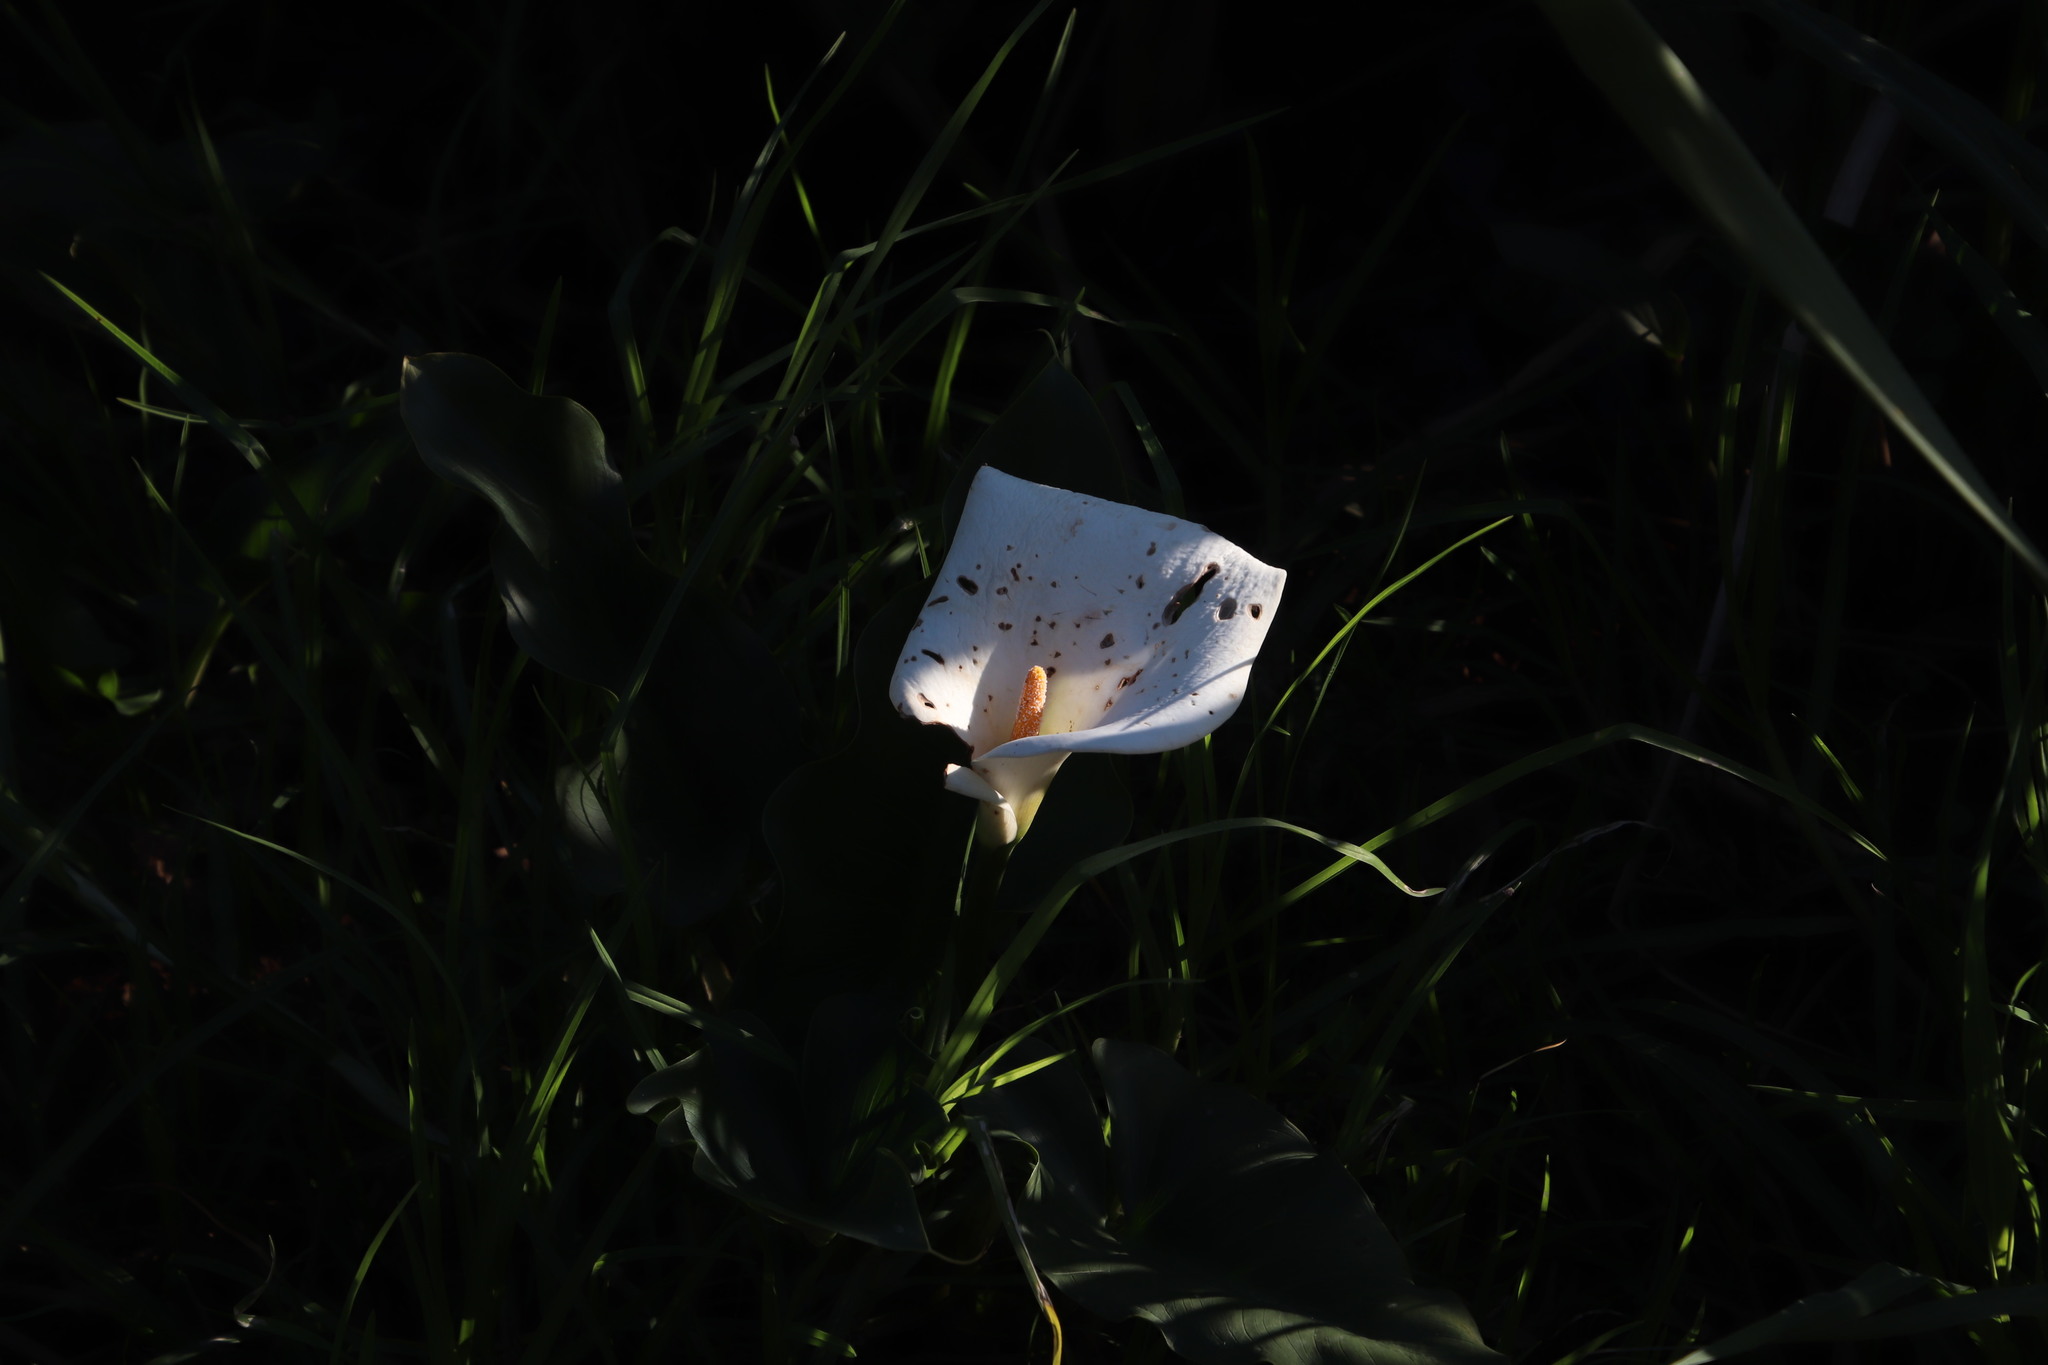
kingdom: Plantae
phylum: Tracheophyta
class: Liliopsida
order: Alismatales
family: Araceae
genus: Zantedeschia
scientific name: Zantedeschia aethiopica
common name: Altar-lily
